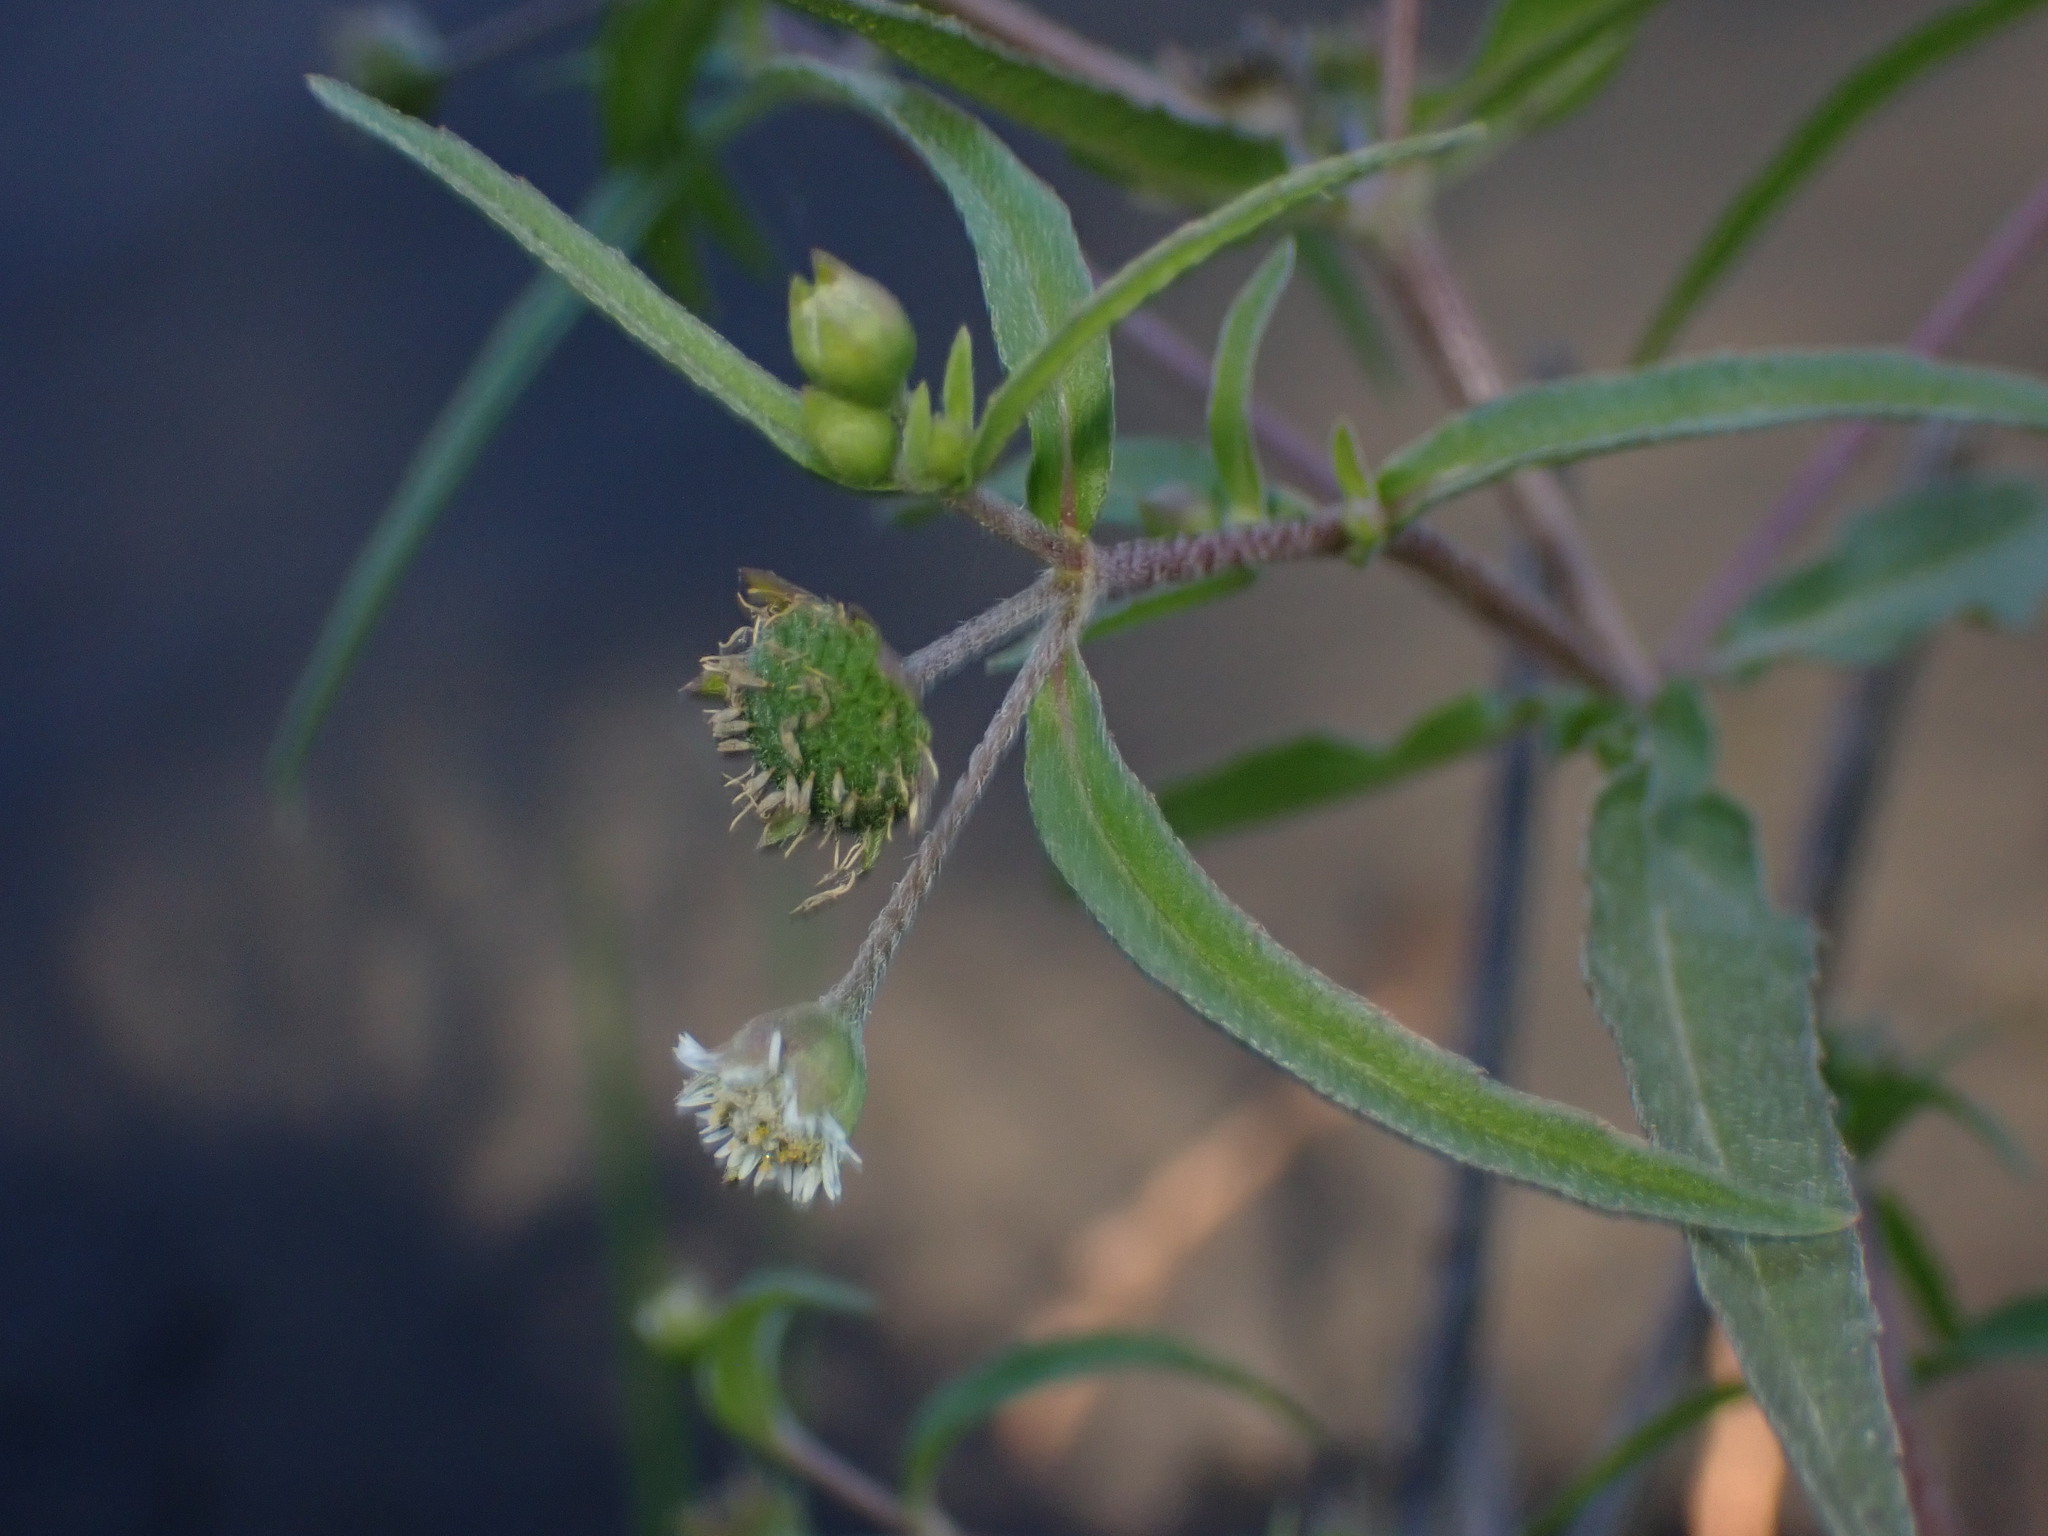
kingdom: Plantae
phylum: Tracheophyta
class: Magnoliopsida
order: Asterales
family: Asteraceae
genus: Eclipta
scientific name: Eclipta prostrata
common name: False daisy
